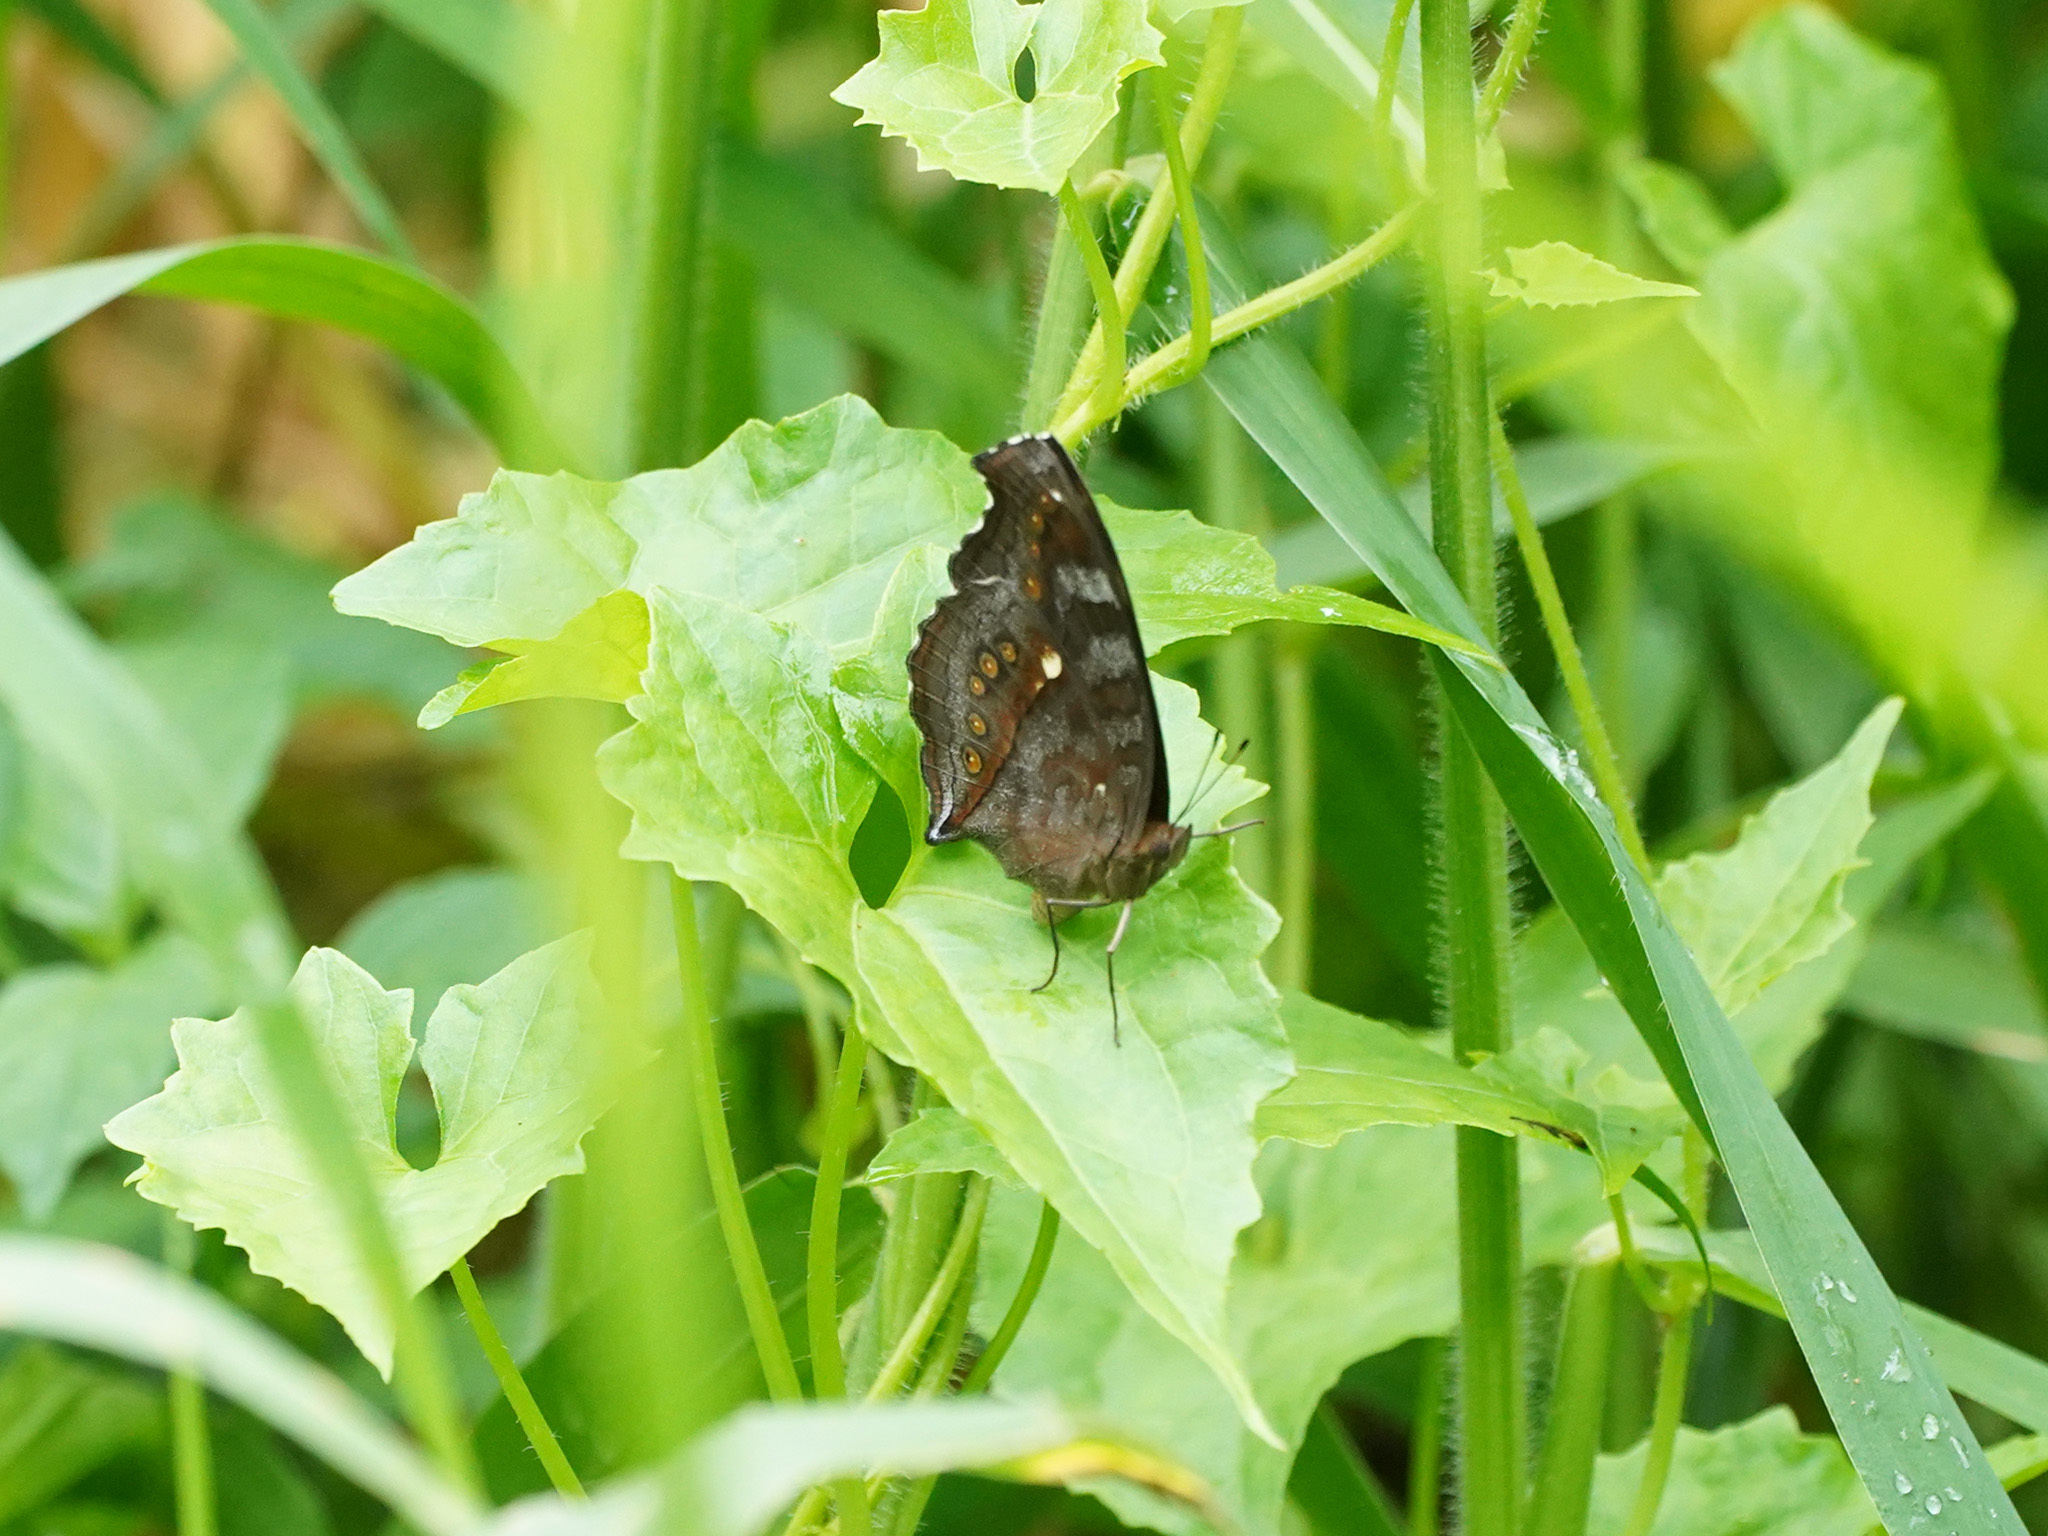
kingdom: Animalia
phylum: Arthropoda
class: Insecta
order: Lepidoptera
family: Nymphalidae
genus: Junonia
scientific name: Junonia hedonia
